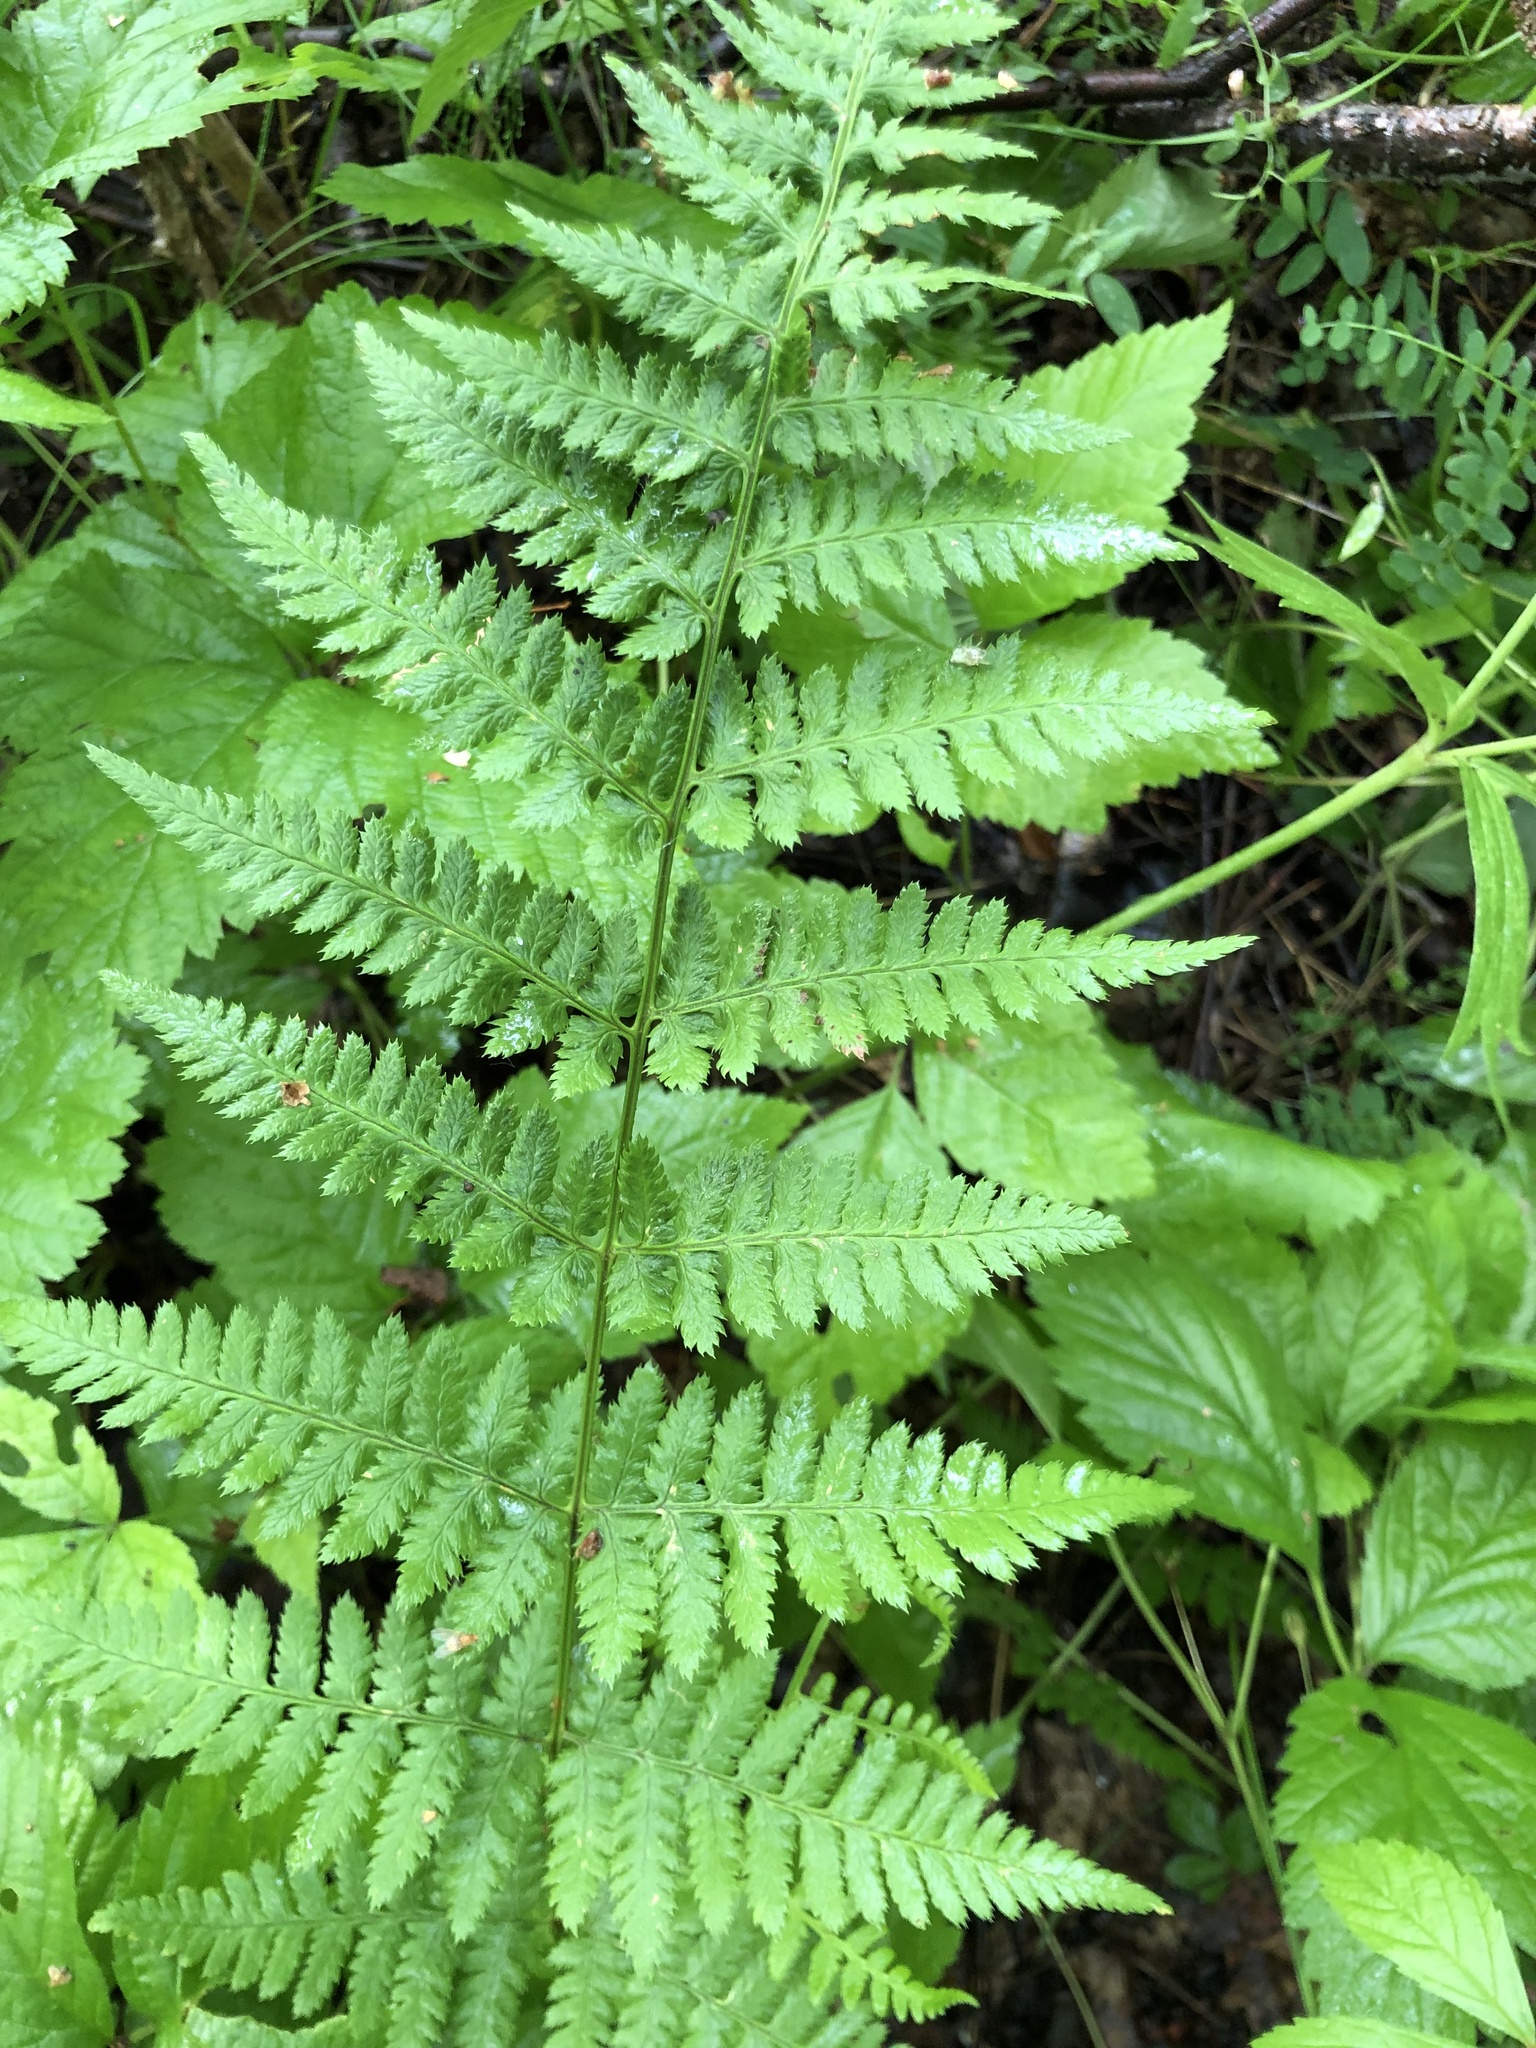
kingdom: Plantae
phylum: Tracheophyta
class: Polypodiopsida
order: Polypodiales
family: Dryopteridaceae
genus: Dryopteris
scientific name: Dryopteris carthusiana
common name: Narrow buckler-fern
